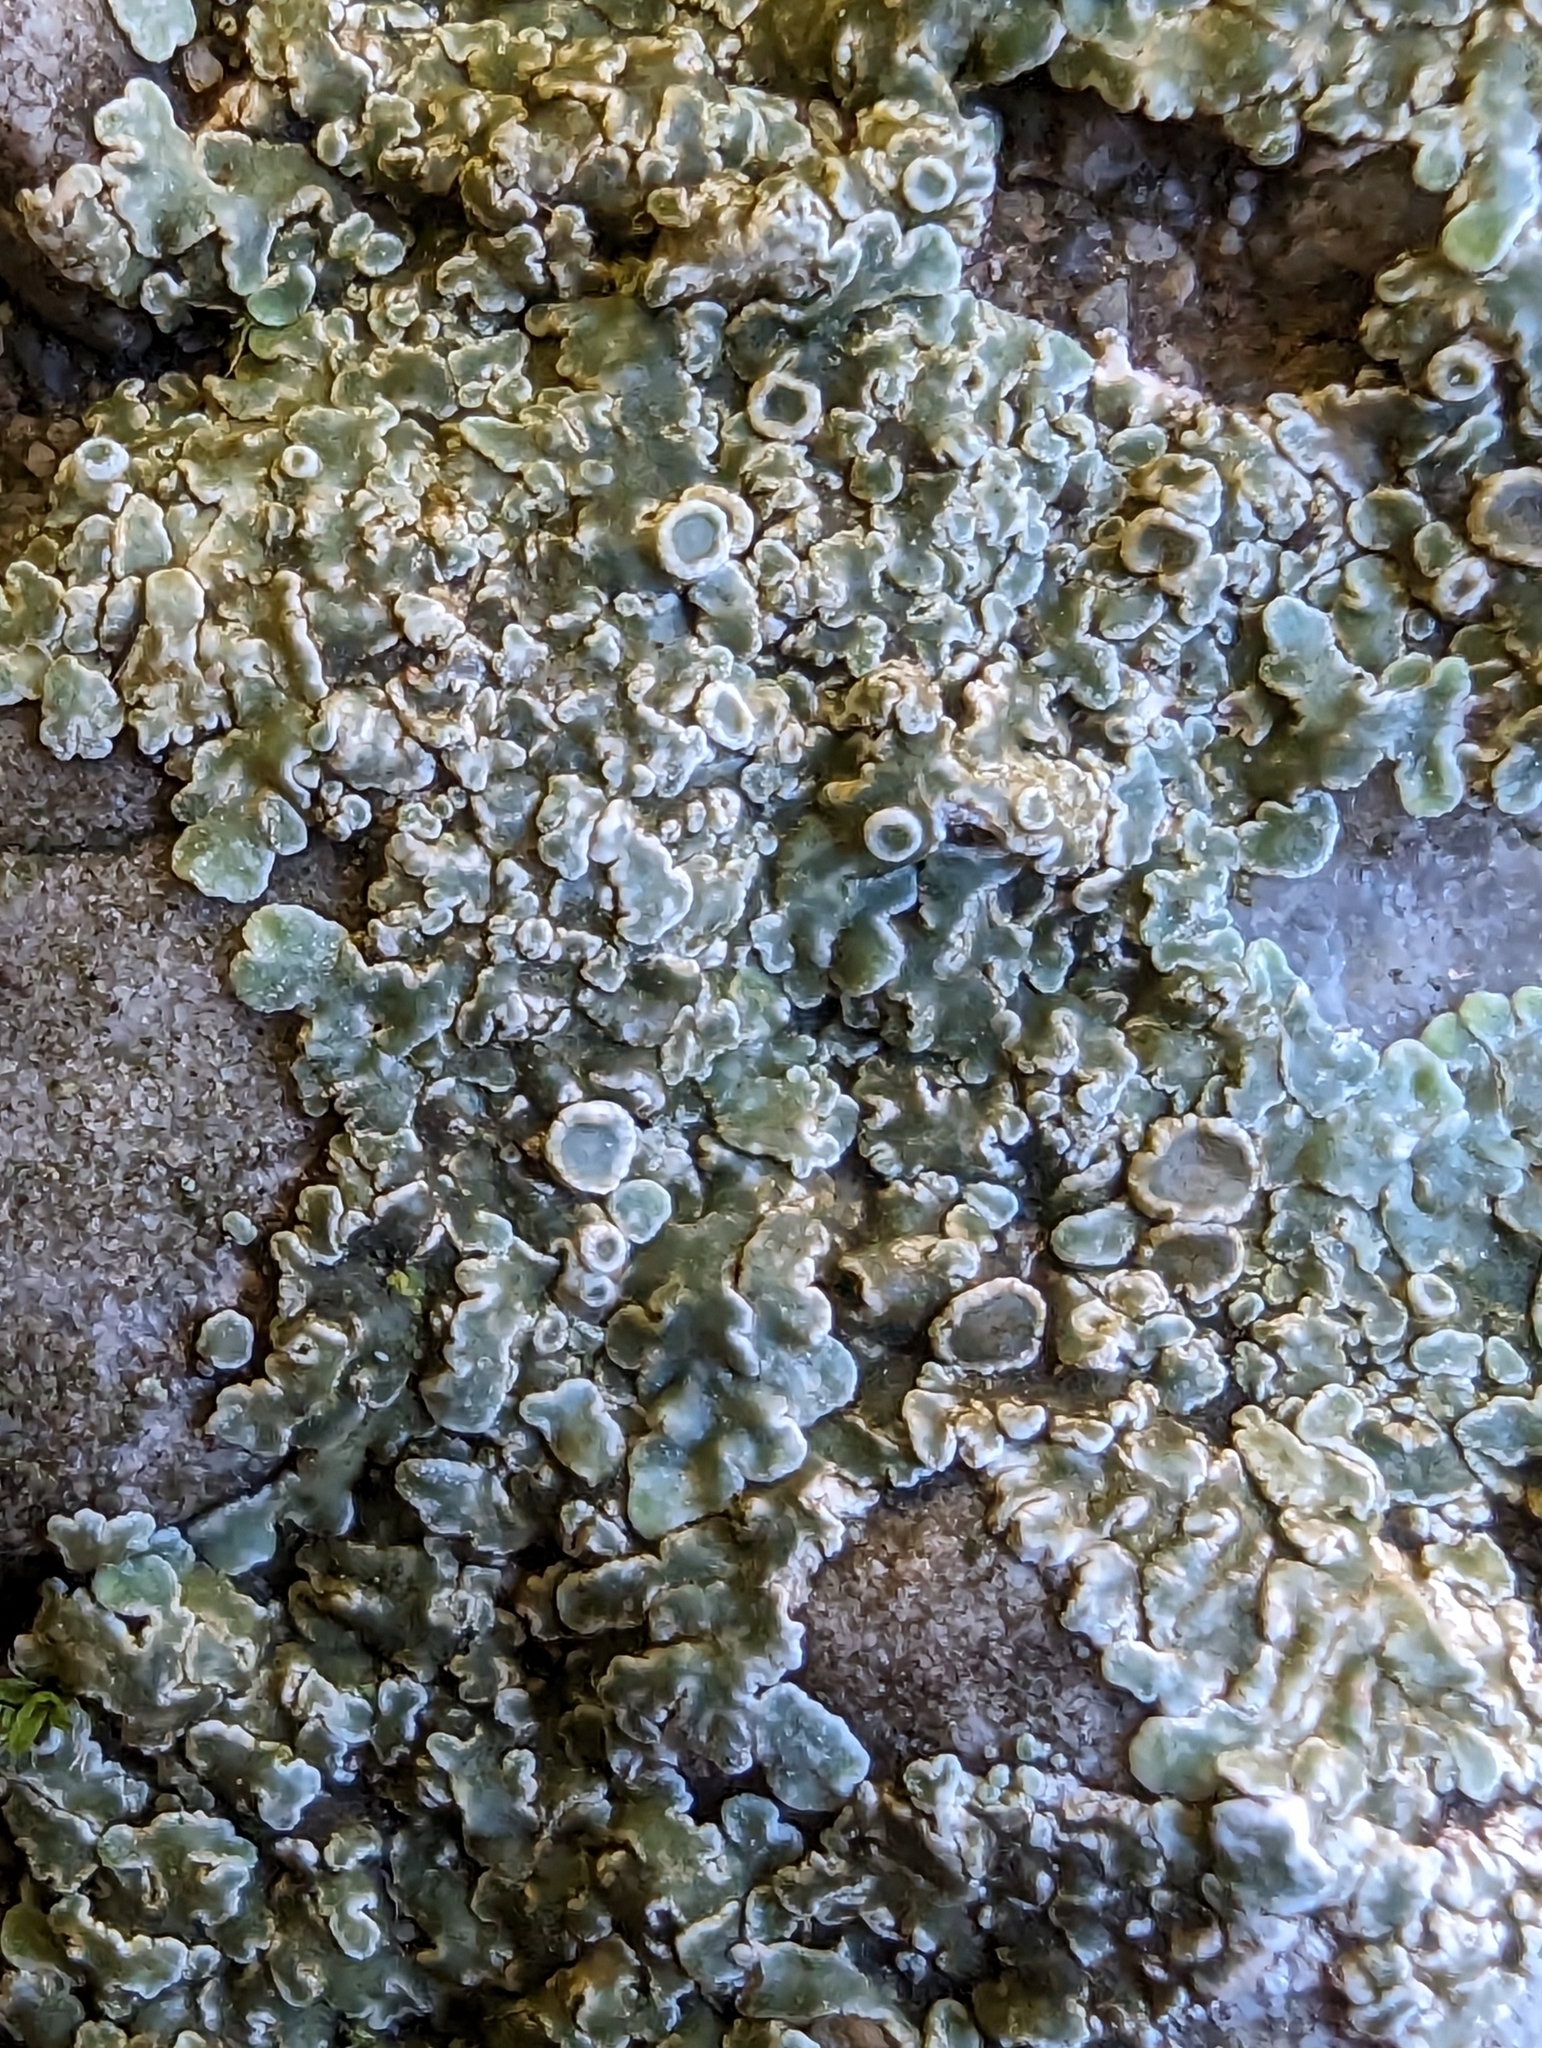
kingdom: Fungi
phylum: Ascomycota
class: Lecanoromycetes
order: Lecanorales
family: Lecanoraceae
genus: Protoparmeliopsis
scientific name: Protoparmeliopsis muralis
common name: Stonewall rim lichen
